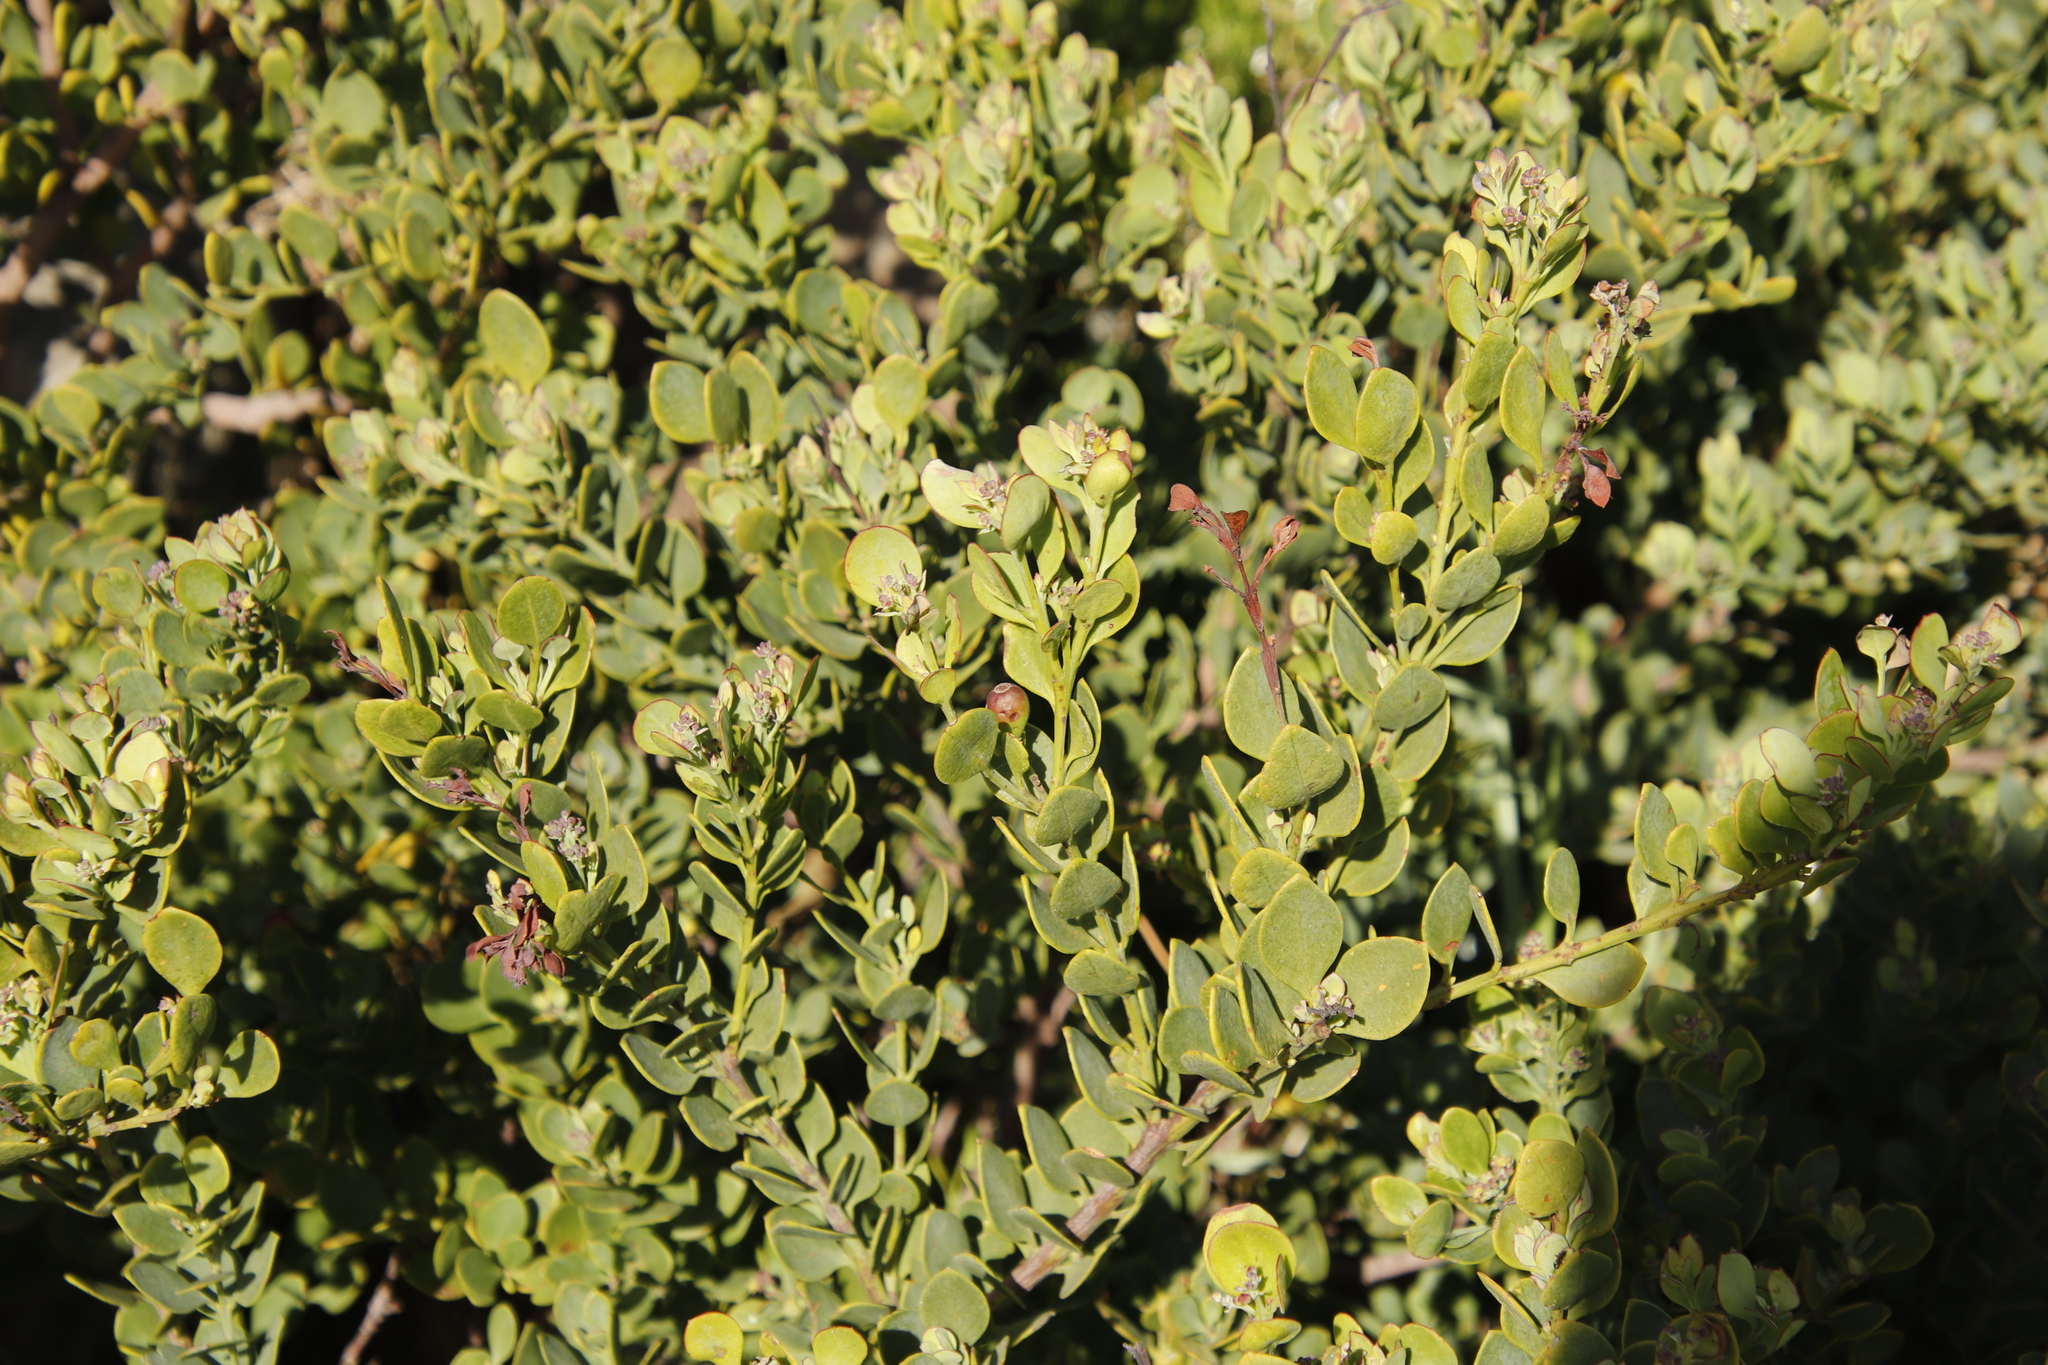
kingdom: Plantae
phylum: Tracheophyta
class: Magnoliopsida
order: Santalales
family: Santalaceae
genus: Osyris
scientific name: Osyris compressa
